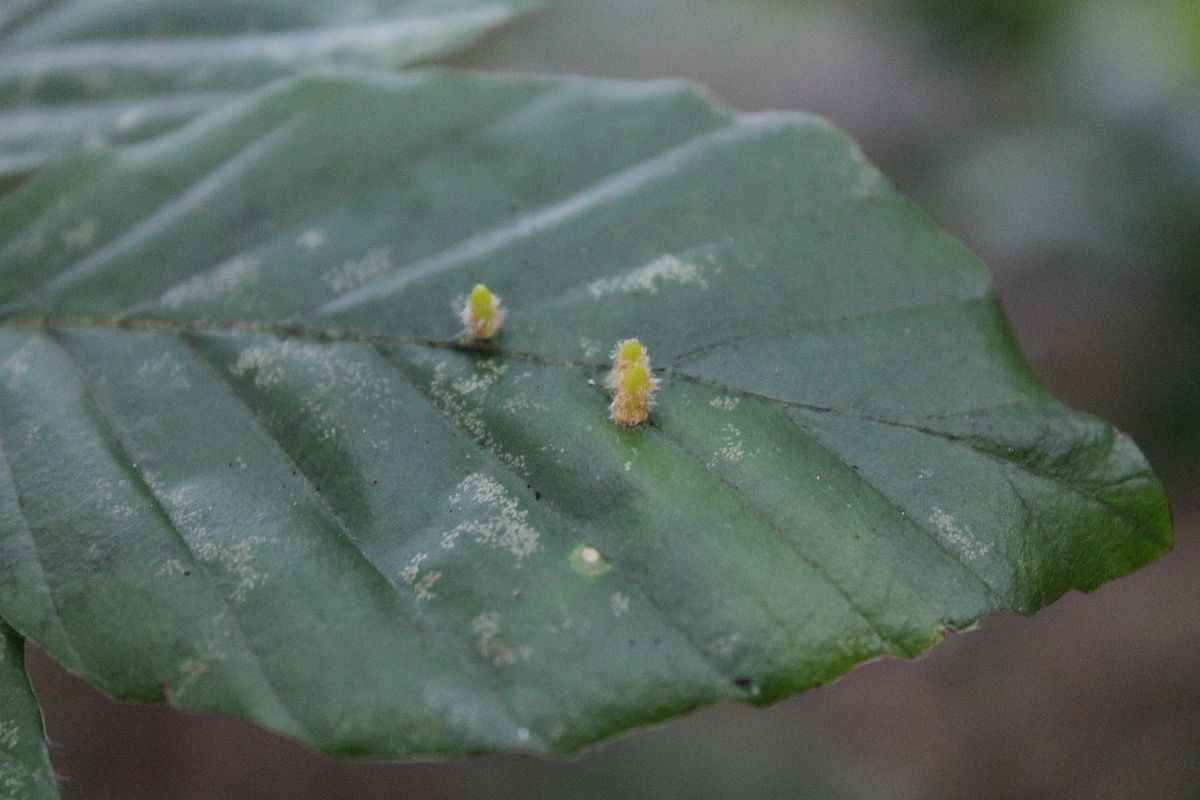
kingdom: Animalia
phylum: Arthropoda
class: Insecta
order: Diptera
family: Cecidomyiidae
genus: Hartigiola
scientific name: Hartigiola annulipes
